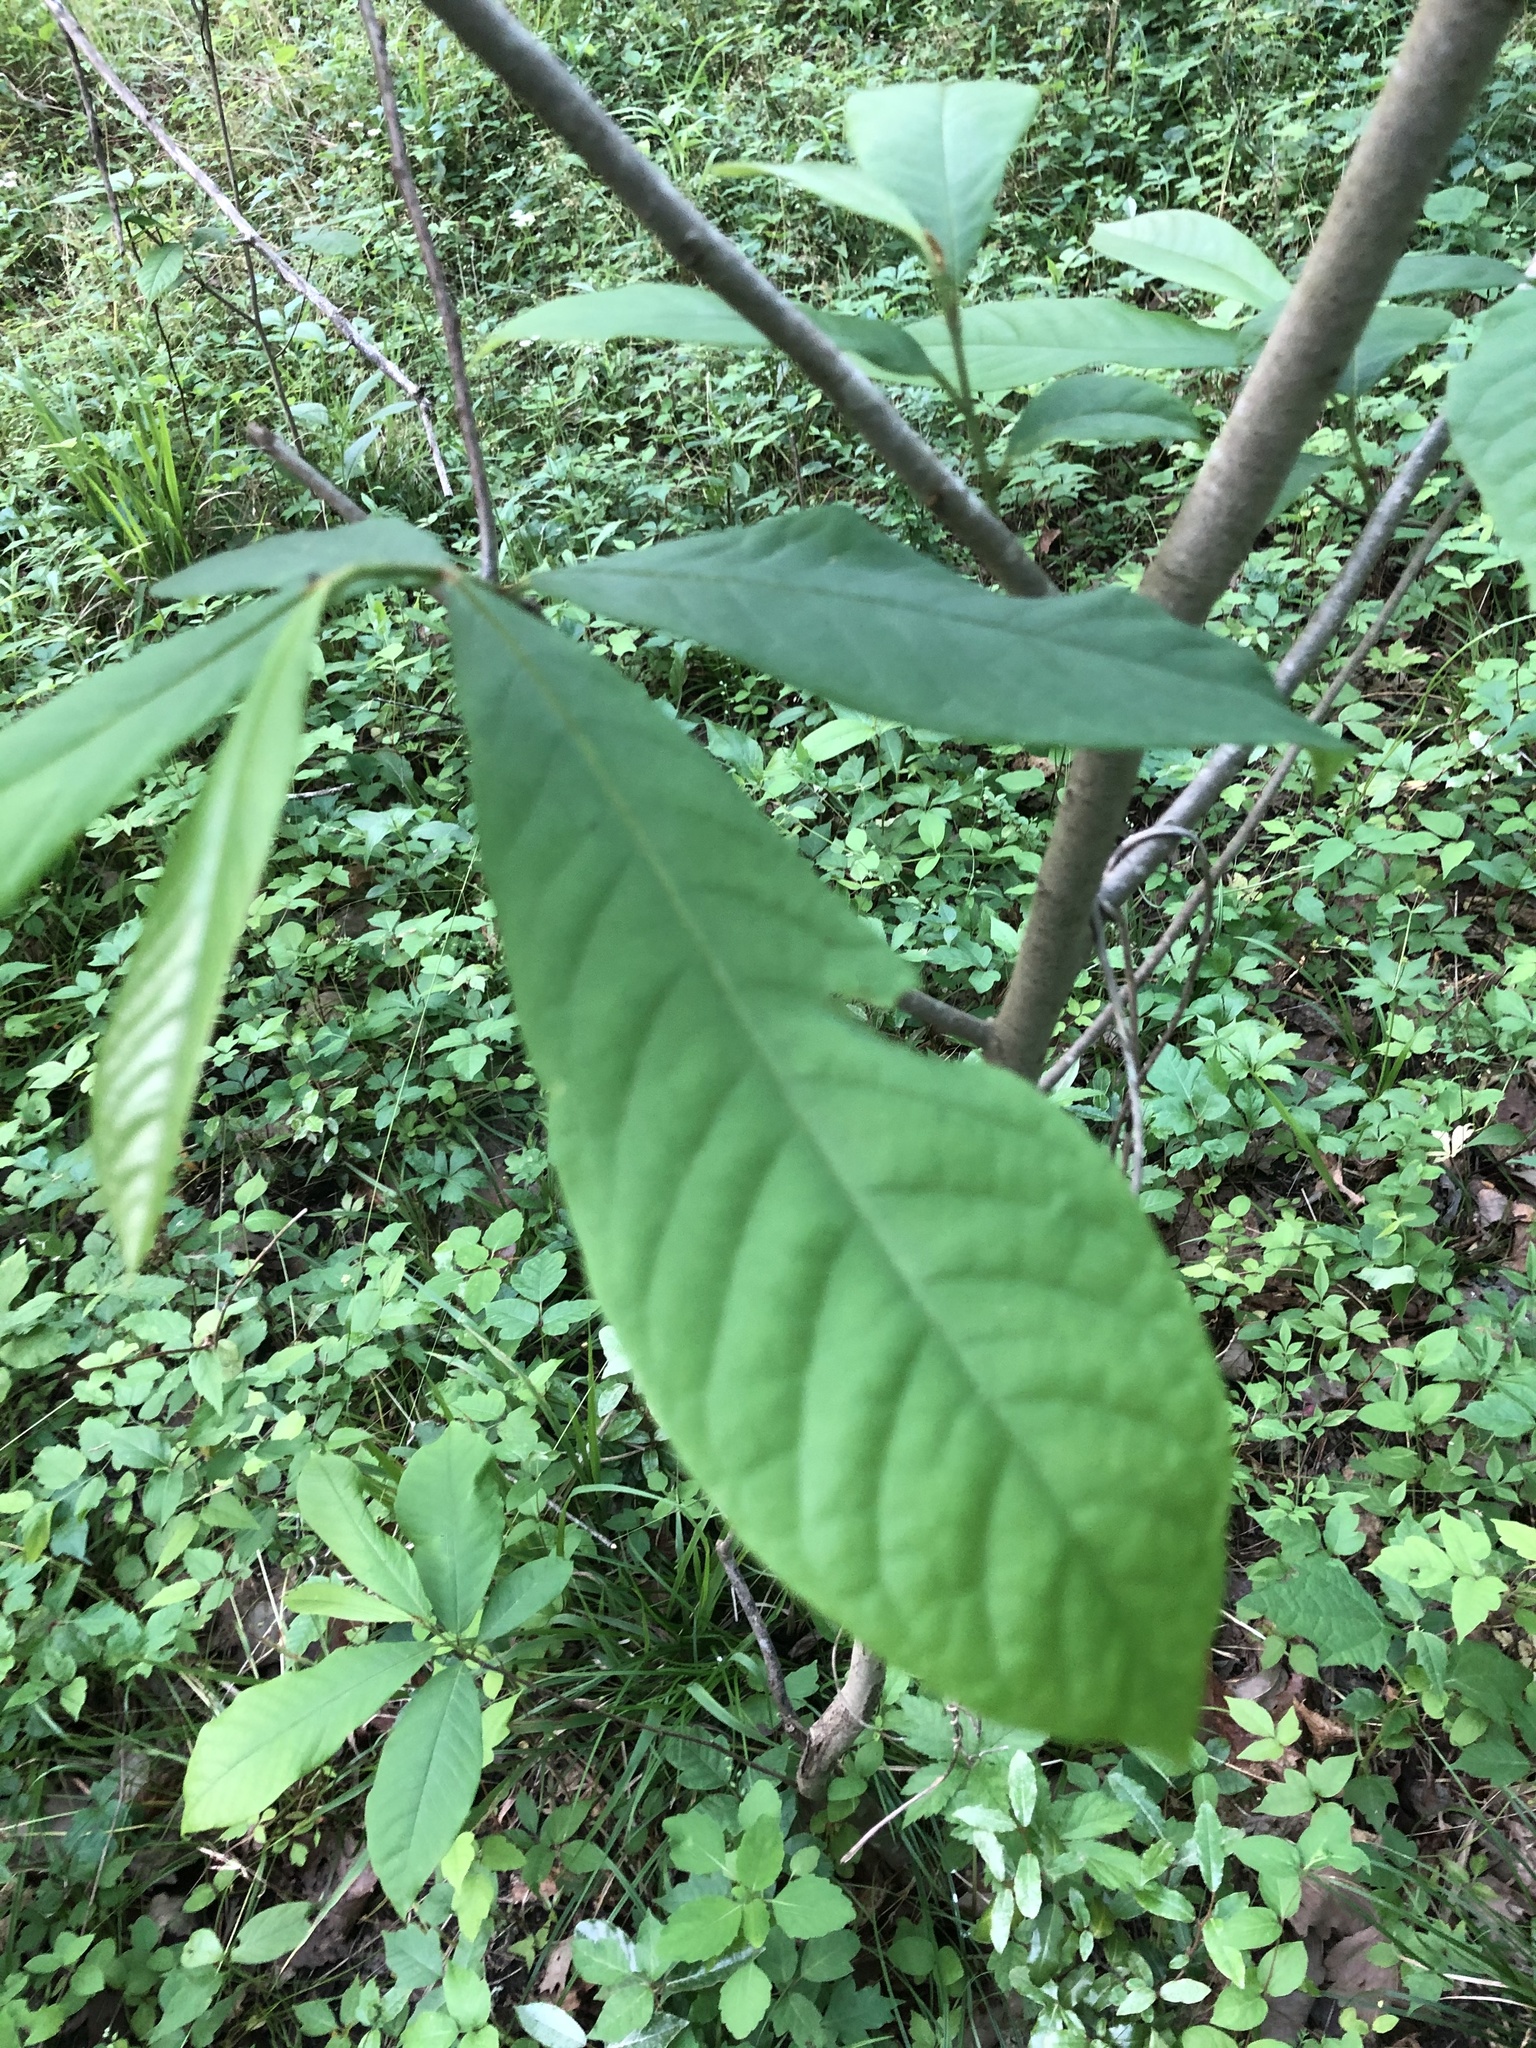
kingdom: Plantae
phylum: Tracheophyta
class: Magnoliopsida
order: Magnoliales
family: Annonaceae
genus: Asimina
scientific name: Asimina triloba
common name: Dog-banana
